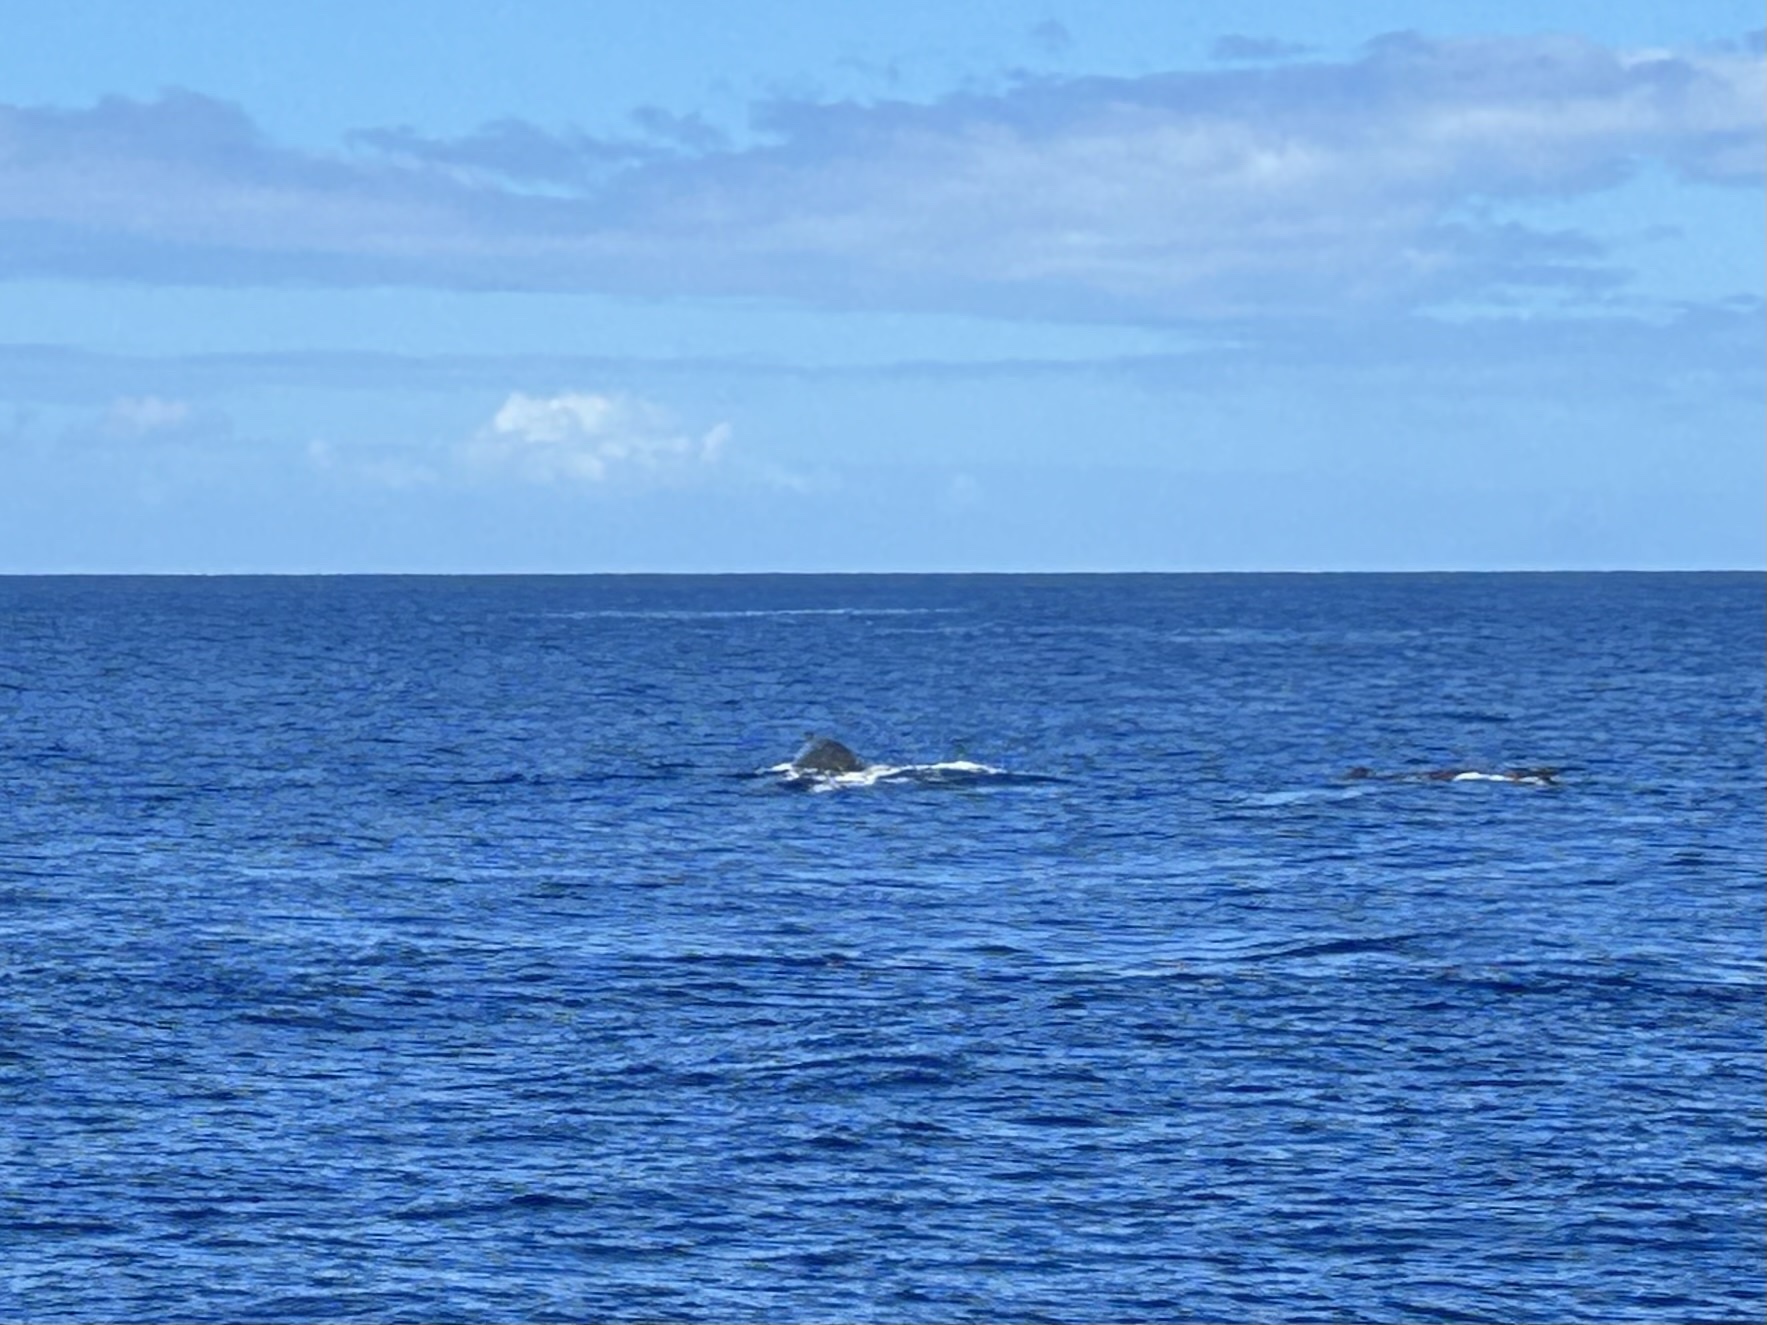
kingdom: Animalia
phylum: Chordata
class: Mammalia
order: Cetacea
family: Balaenopteridae
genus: Megaptera
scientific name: Megaptera novaeangliae
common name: Humpback whale
